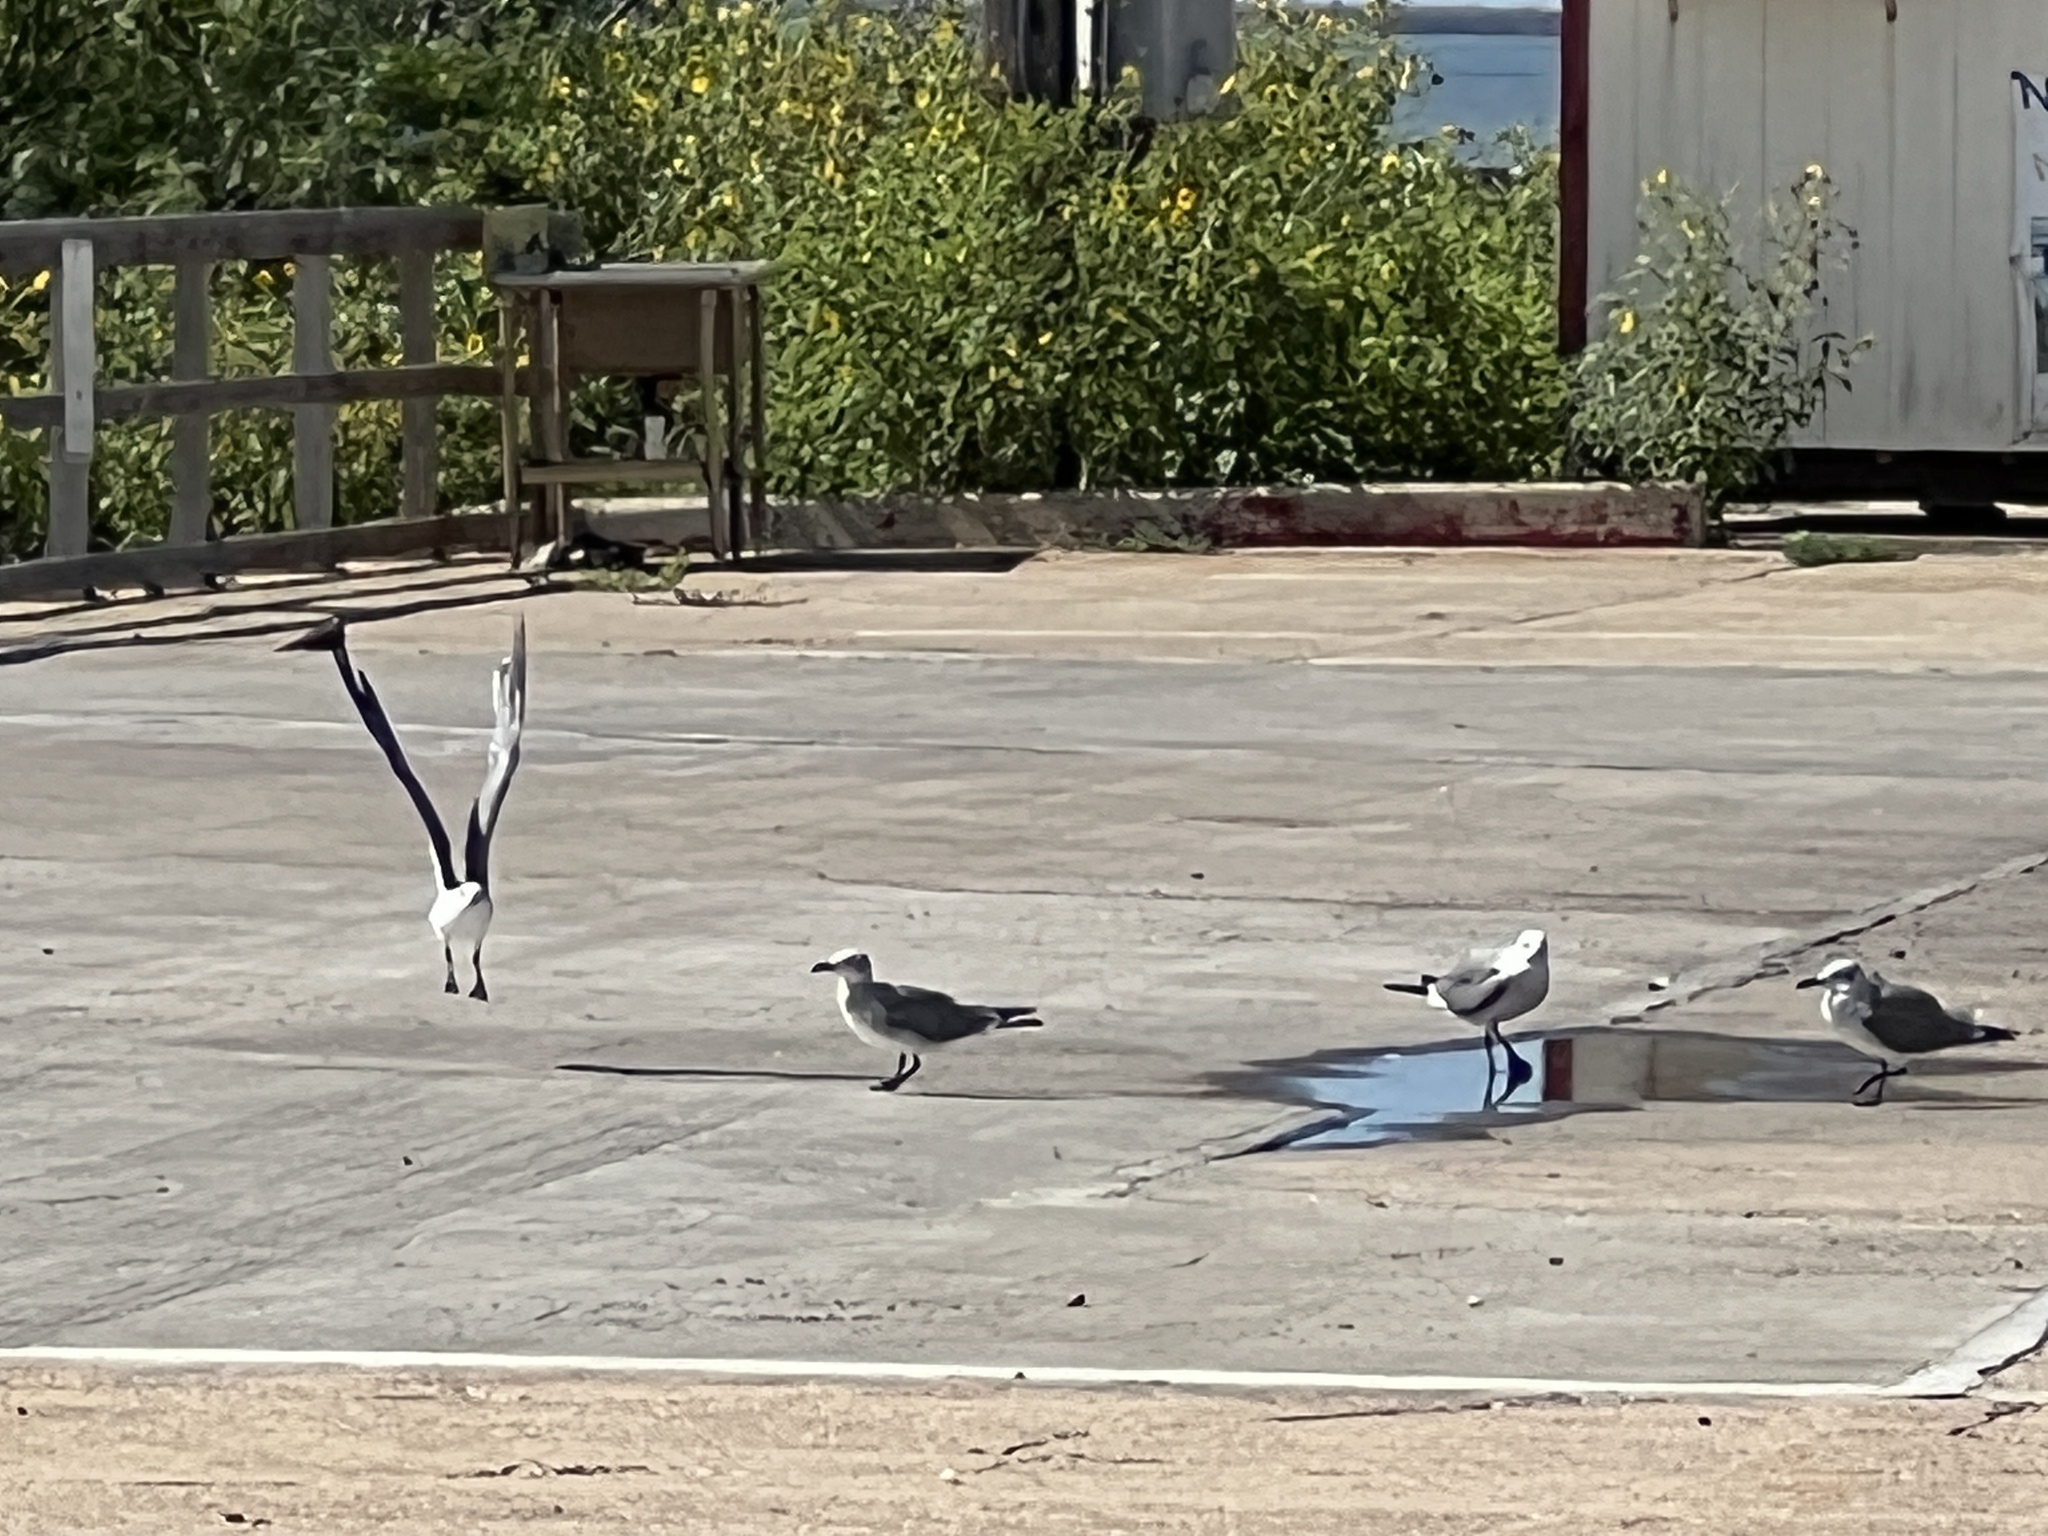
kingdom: Animalia
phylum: Chordata
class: Aves
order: Charadriiformes
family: Laridae
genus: Leucophaeus
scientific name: Leucophaeus atricilla
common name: Laughing gull
